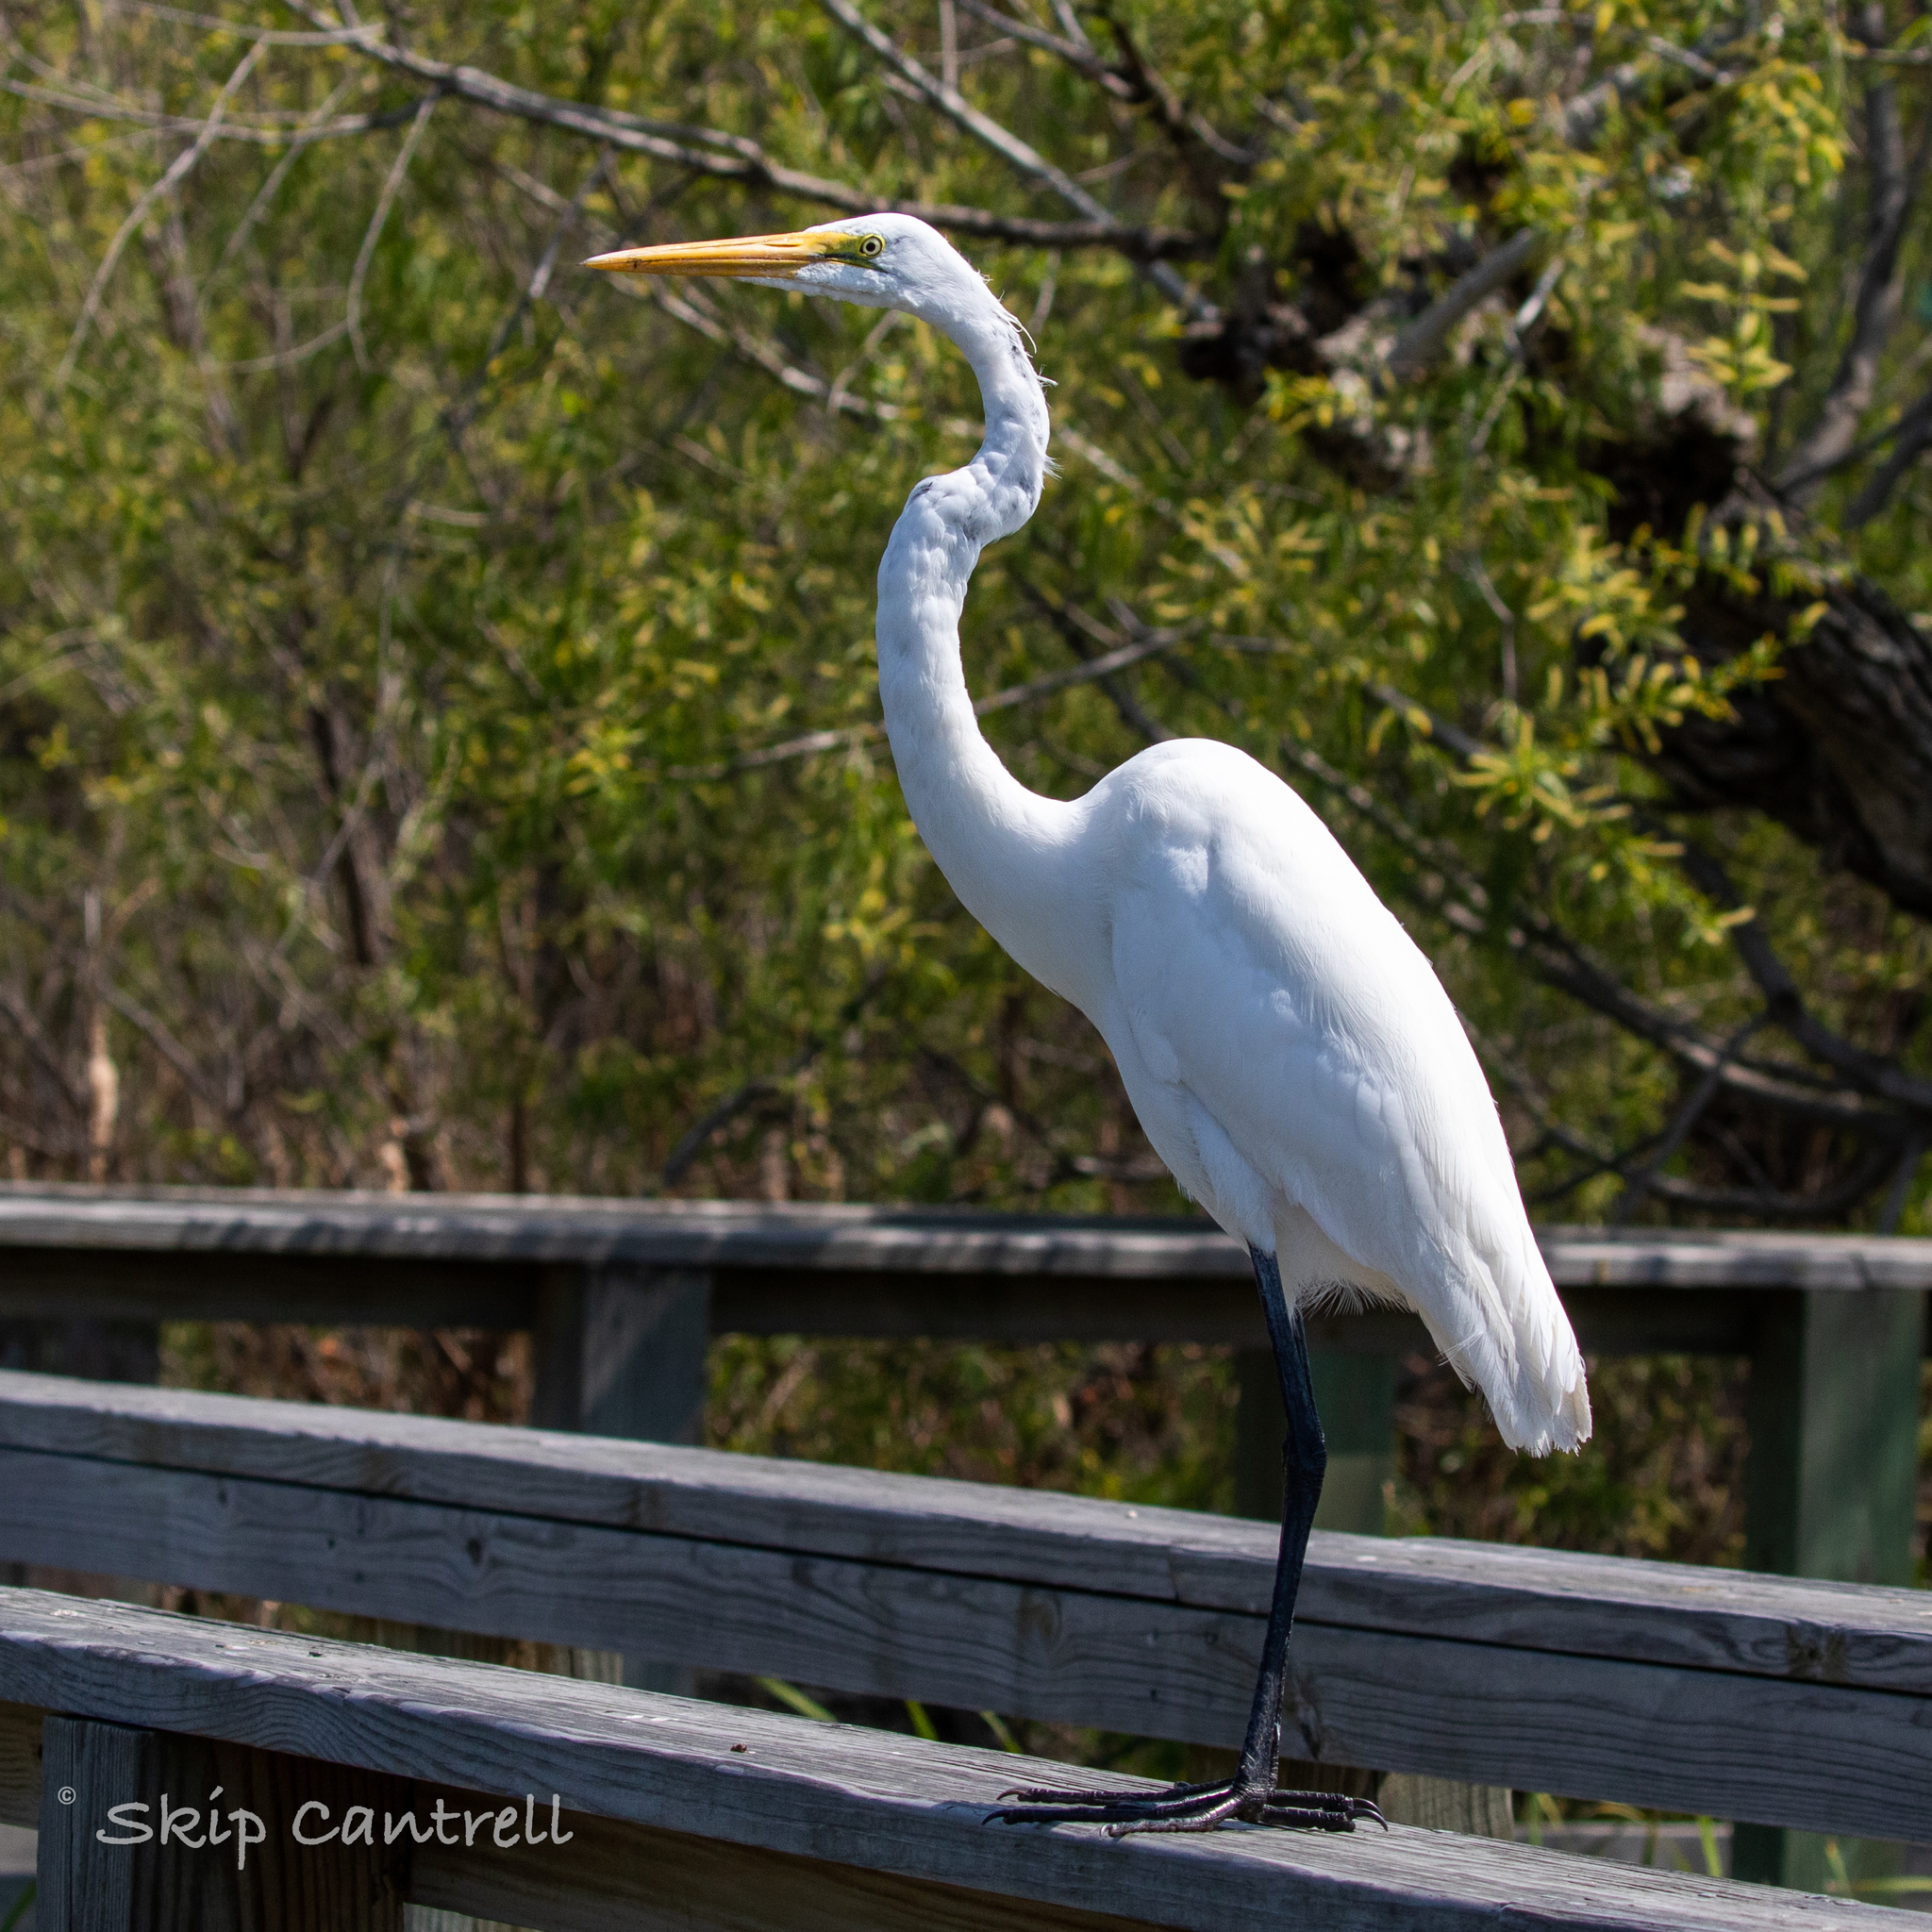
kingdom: Animalia
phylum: Chordata
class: Aves
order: Pelecaniformes
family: Ardeidae
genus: Ardea
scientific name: Ardea alba
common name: Great egret
